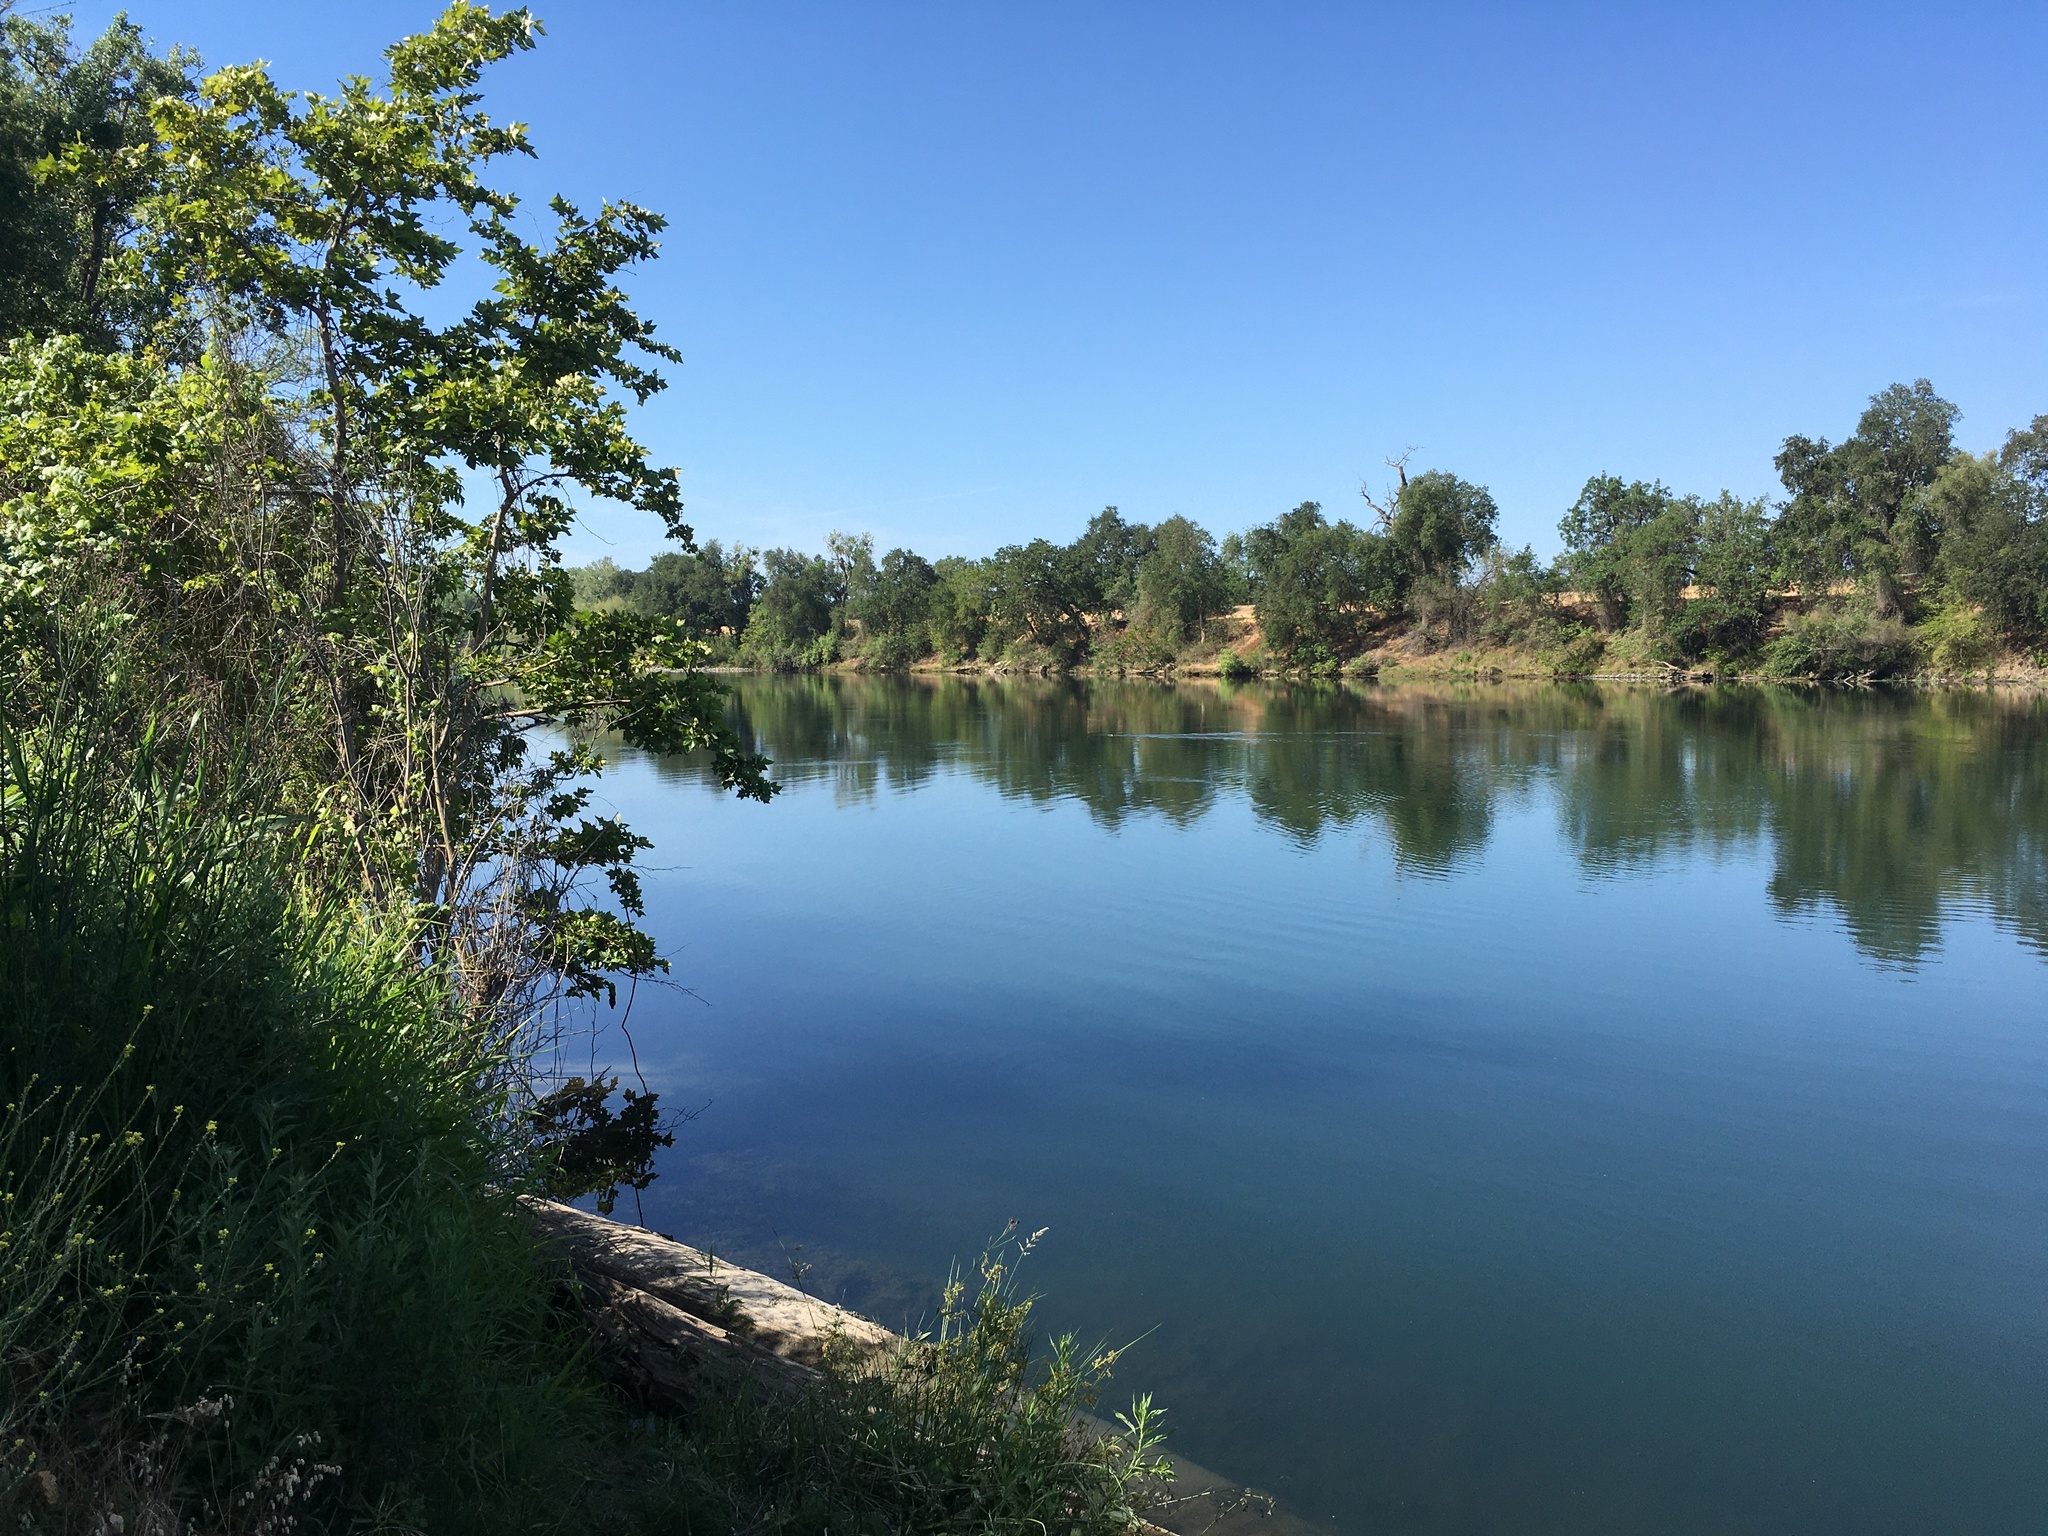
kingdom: Animalia
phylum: Chordata
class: Mammalia
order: Rodentia
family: Castoridae
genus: Castor
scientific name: Castor canadensis
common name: American beaver
